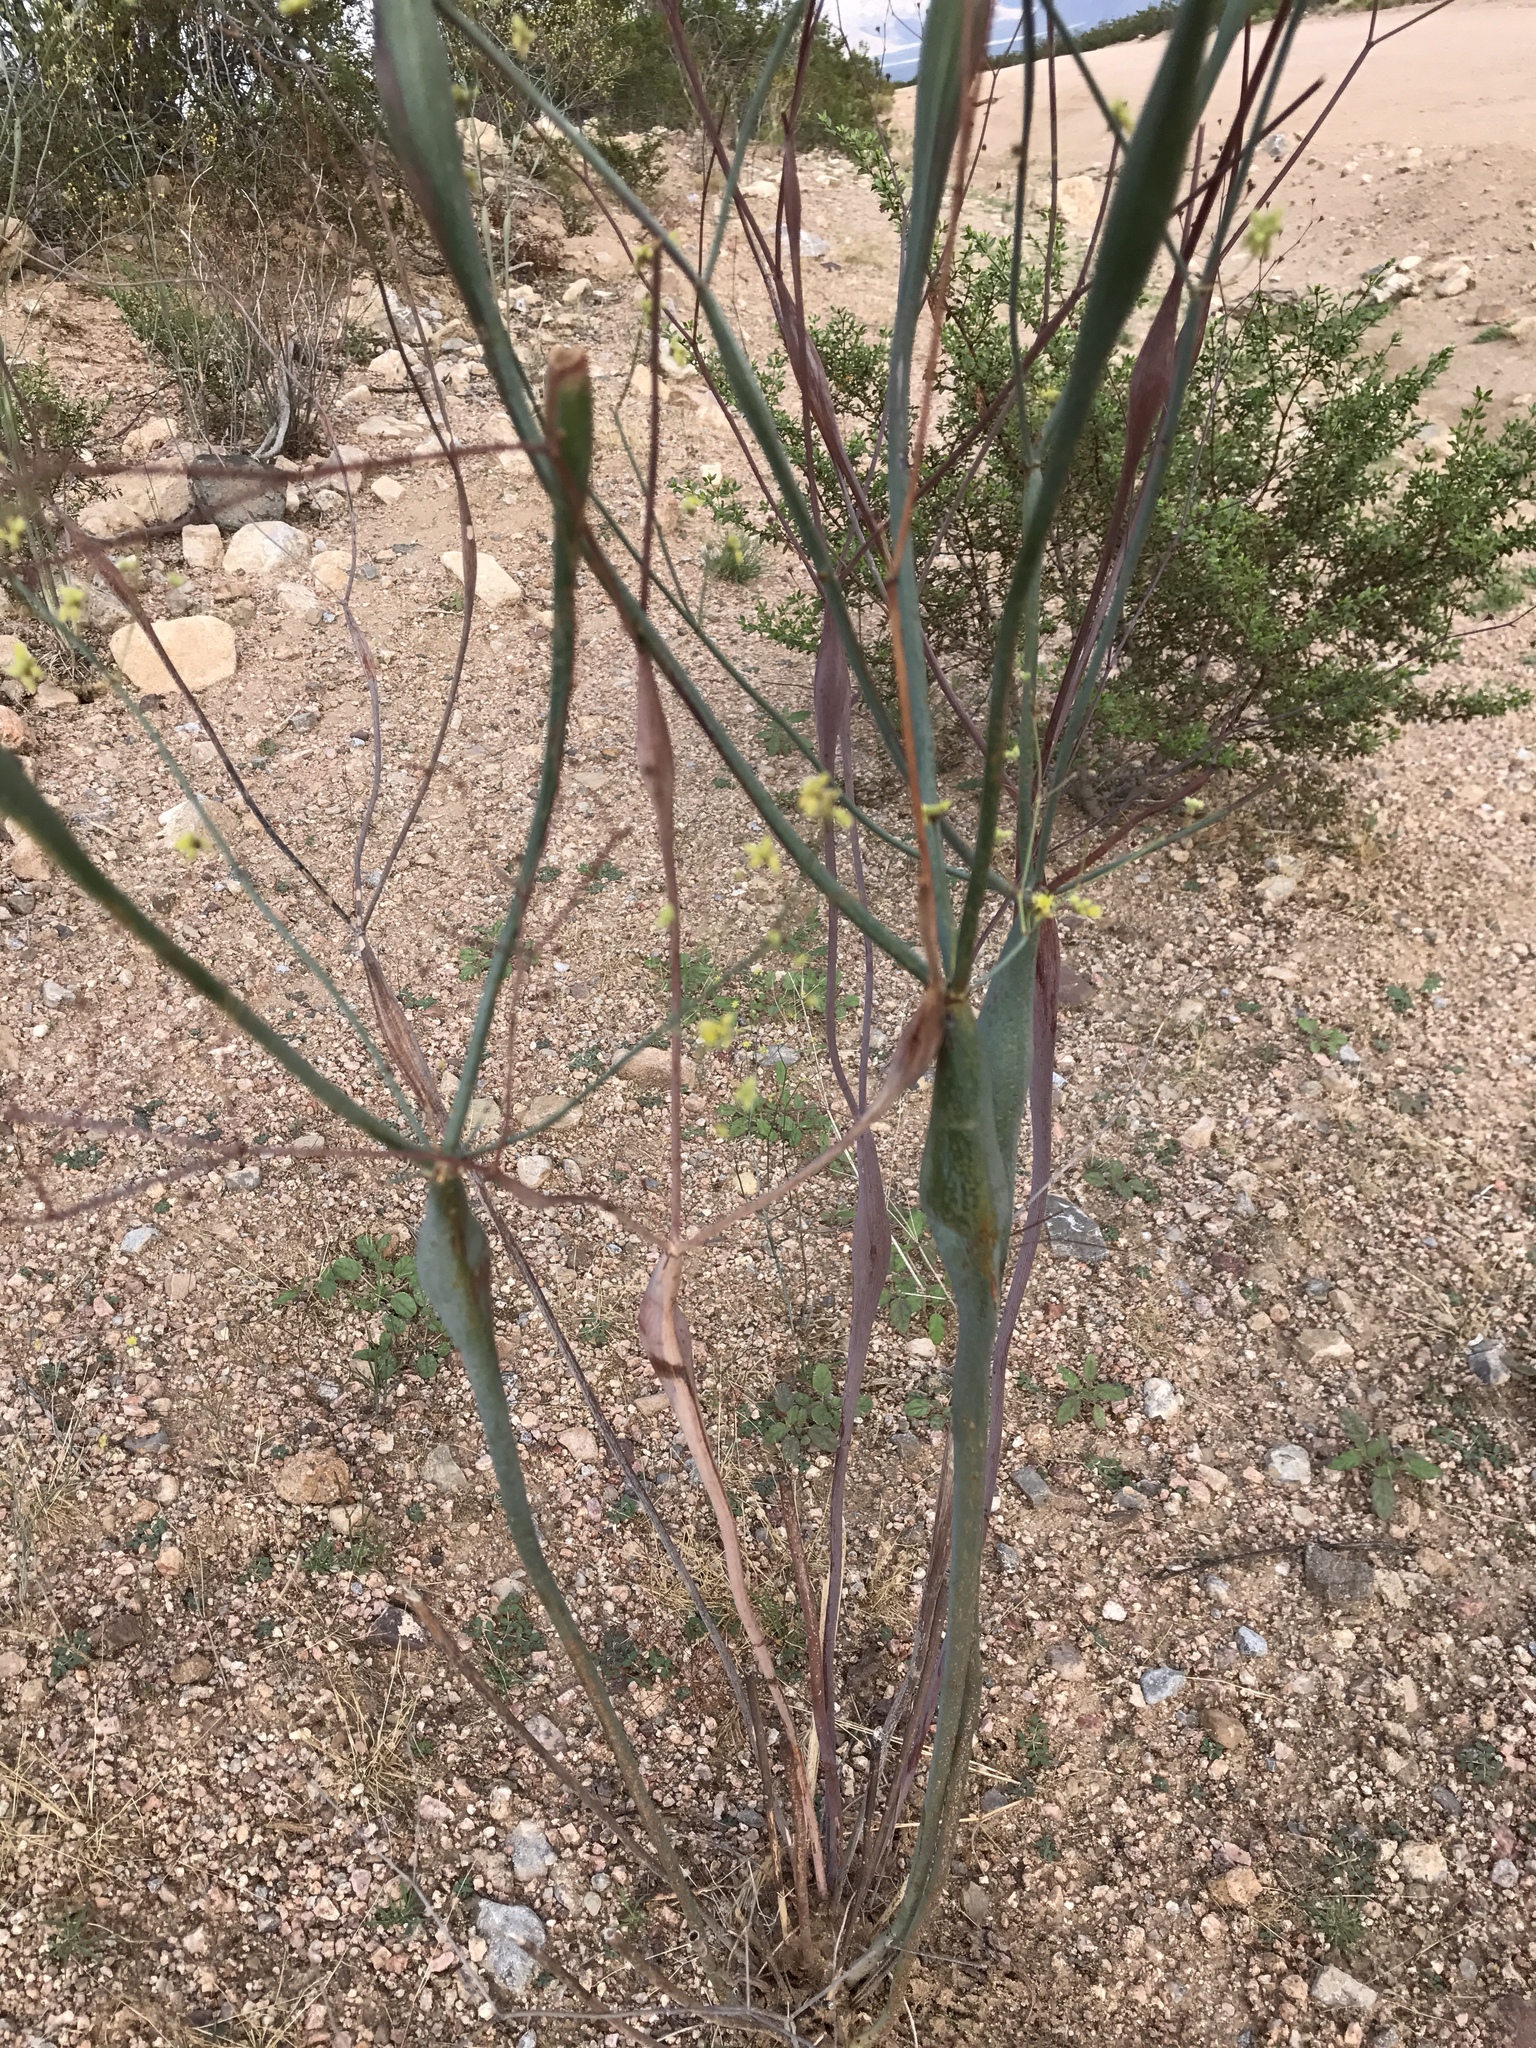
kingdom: Plantae
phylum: Tracheophyta
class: Magnoliopsida
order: Caryophyllales
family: Polygonaceae
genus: Eriogonum
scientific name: Eriogonum inflatum
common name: Desert trumpet
